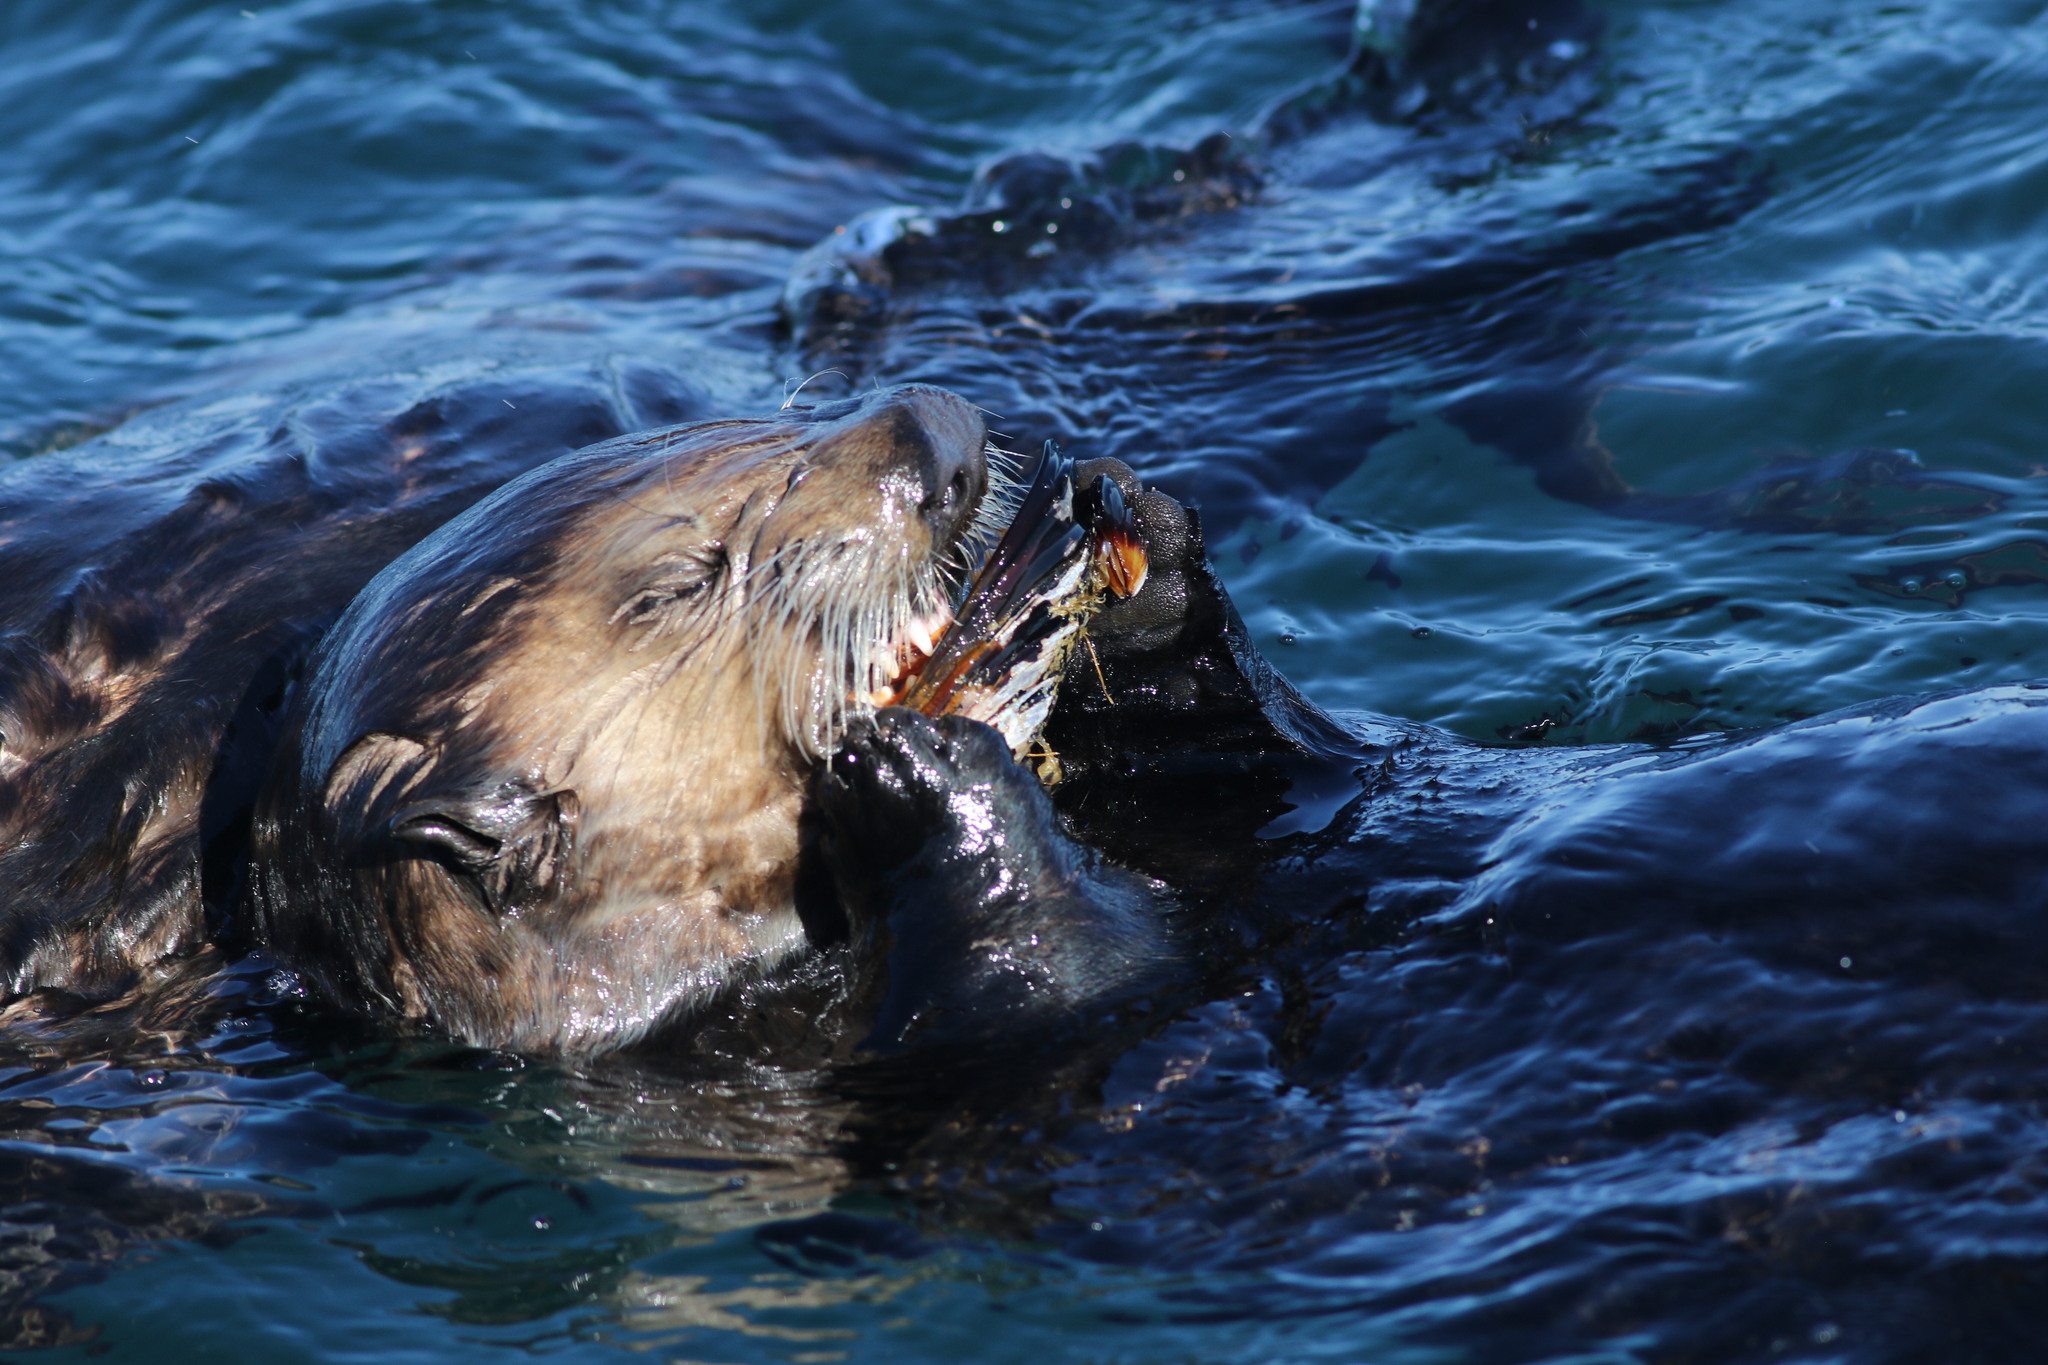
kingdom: Animalia
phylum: Mollusca
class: Bivalvia
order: Mytilida
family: Mytilidae
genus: Mytilus
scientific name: Mytilus californianus
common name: California mussel
